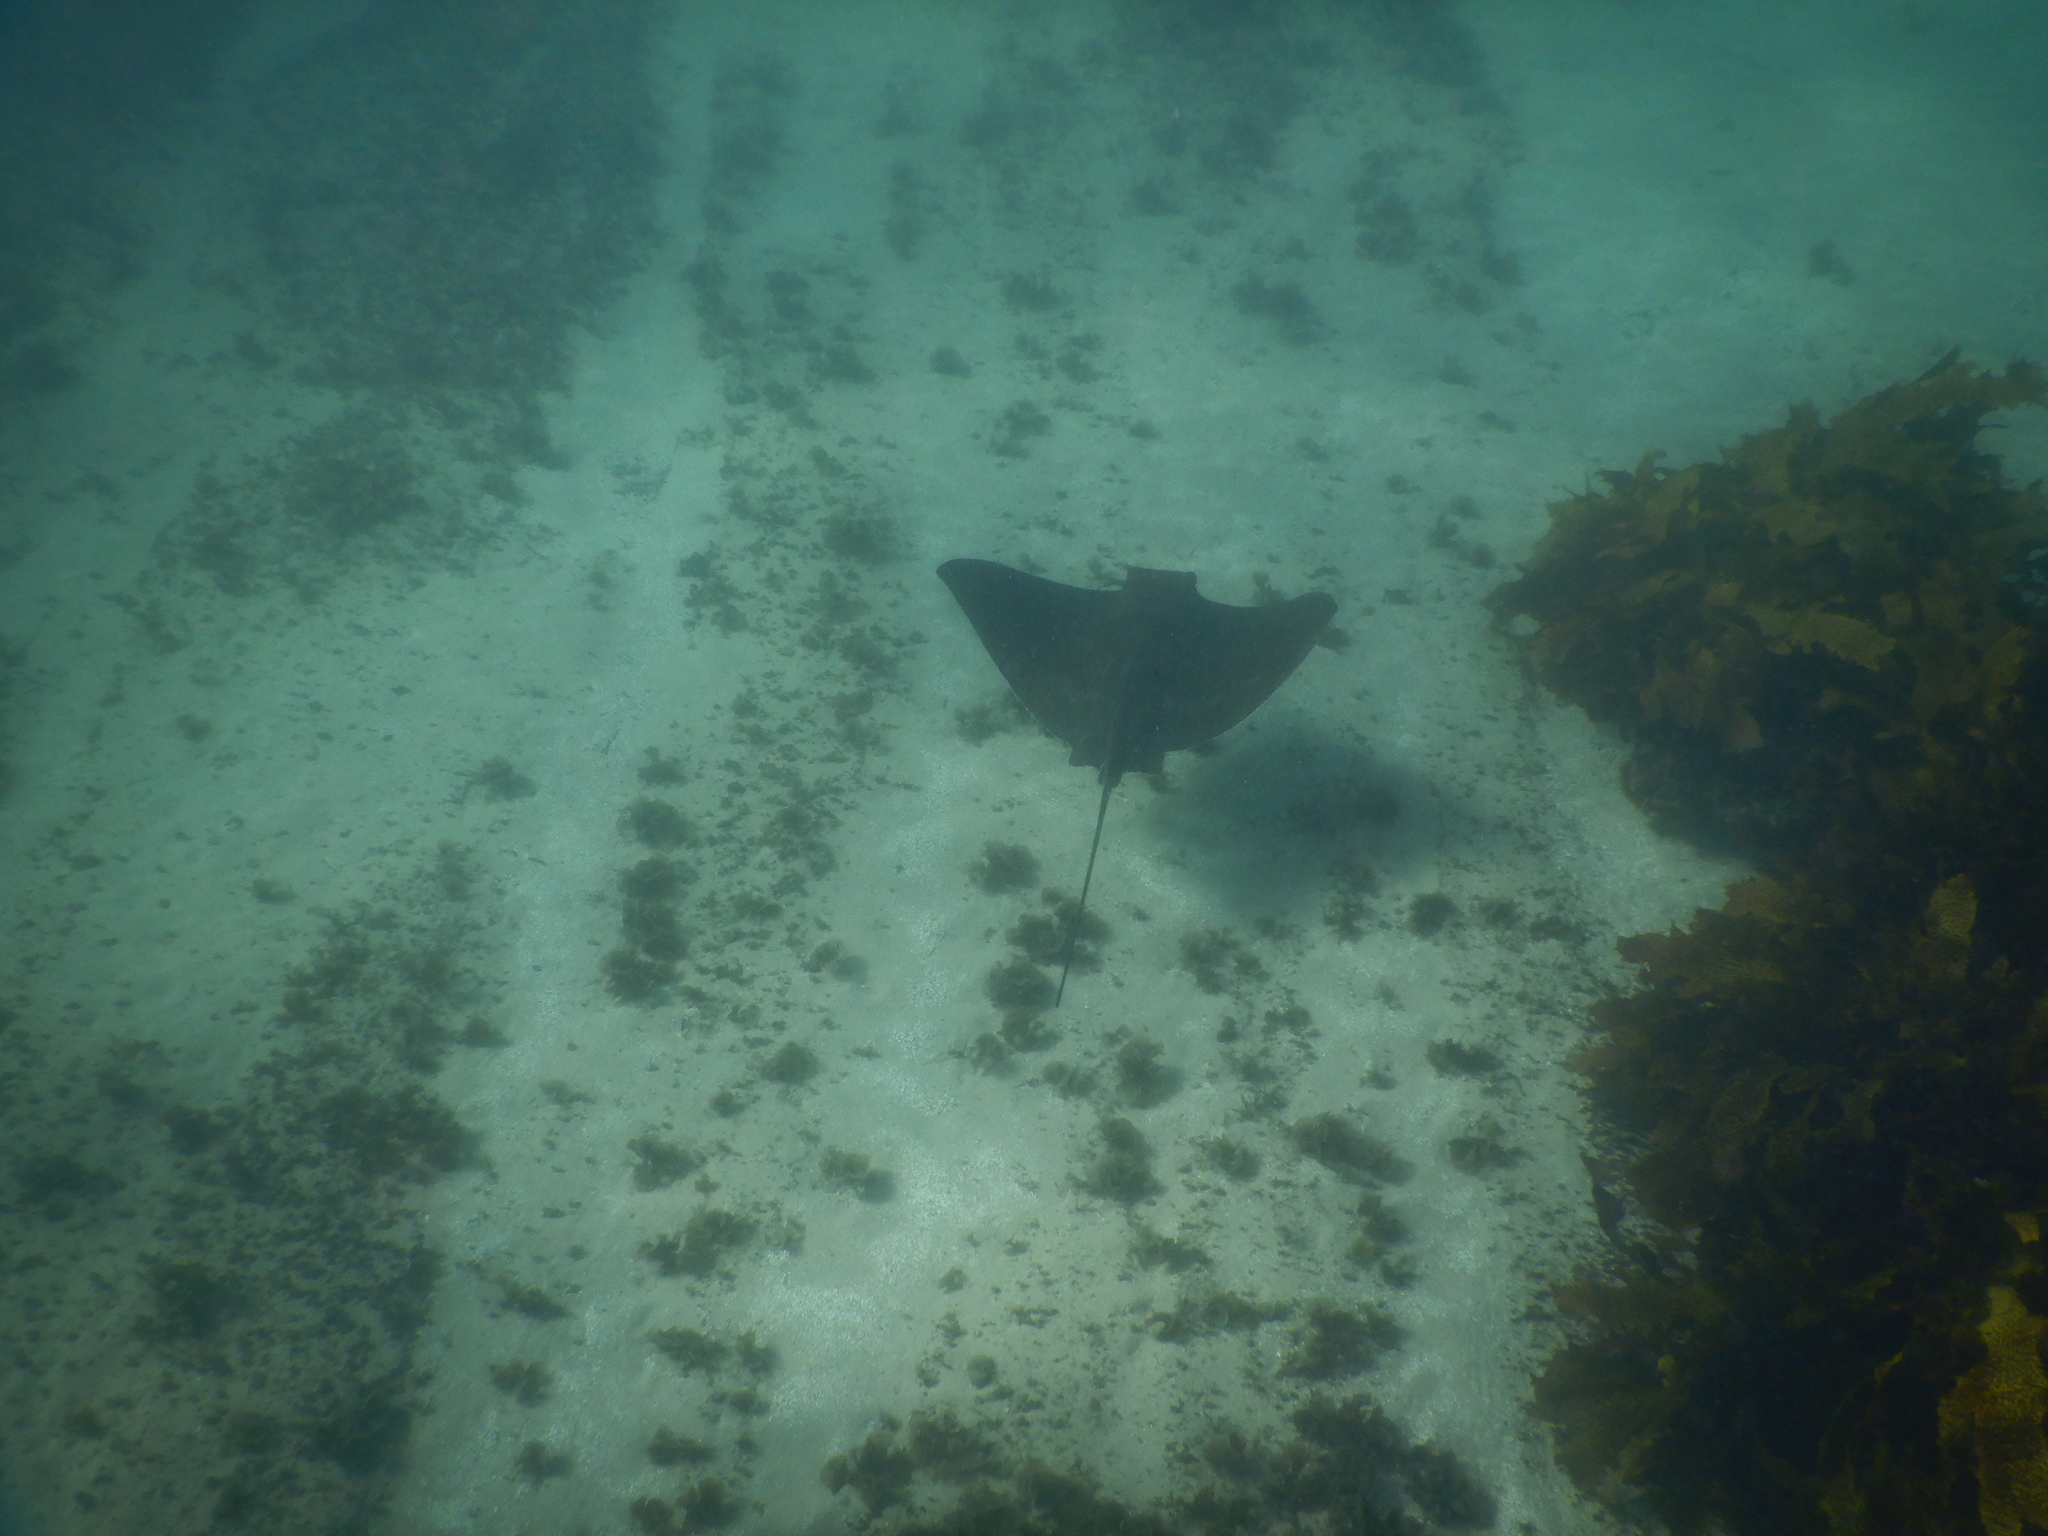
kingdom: Animalia
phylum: Chordata
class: Elasmobranchii
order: Myliobatiformes
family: Myliobatidae
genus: Myliobatis
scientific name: Myliobatis tenuicaudatus
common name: Eagle ray
